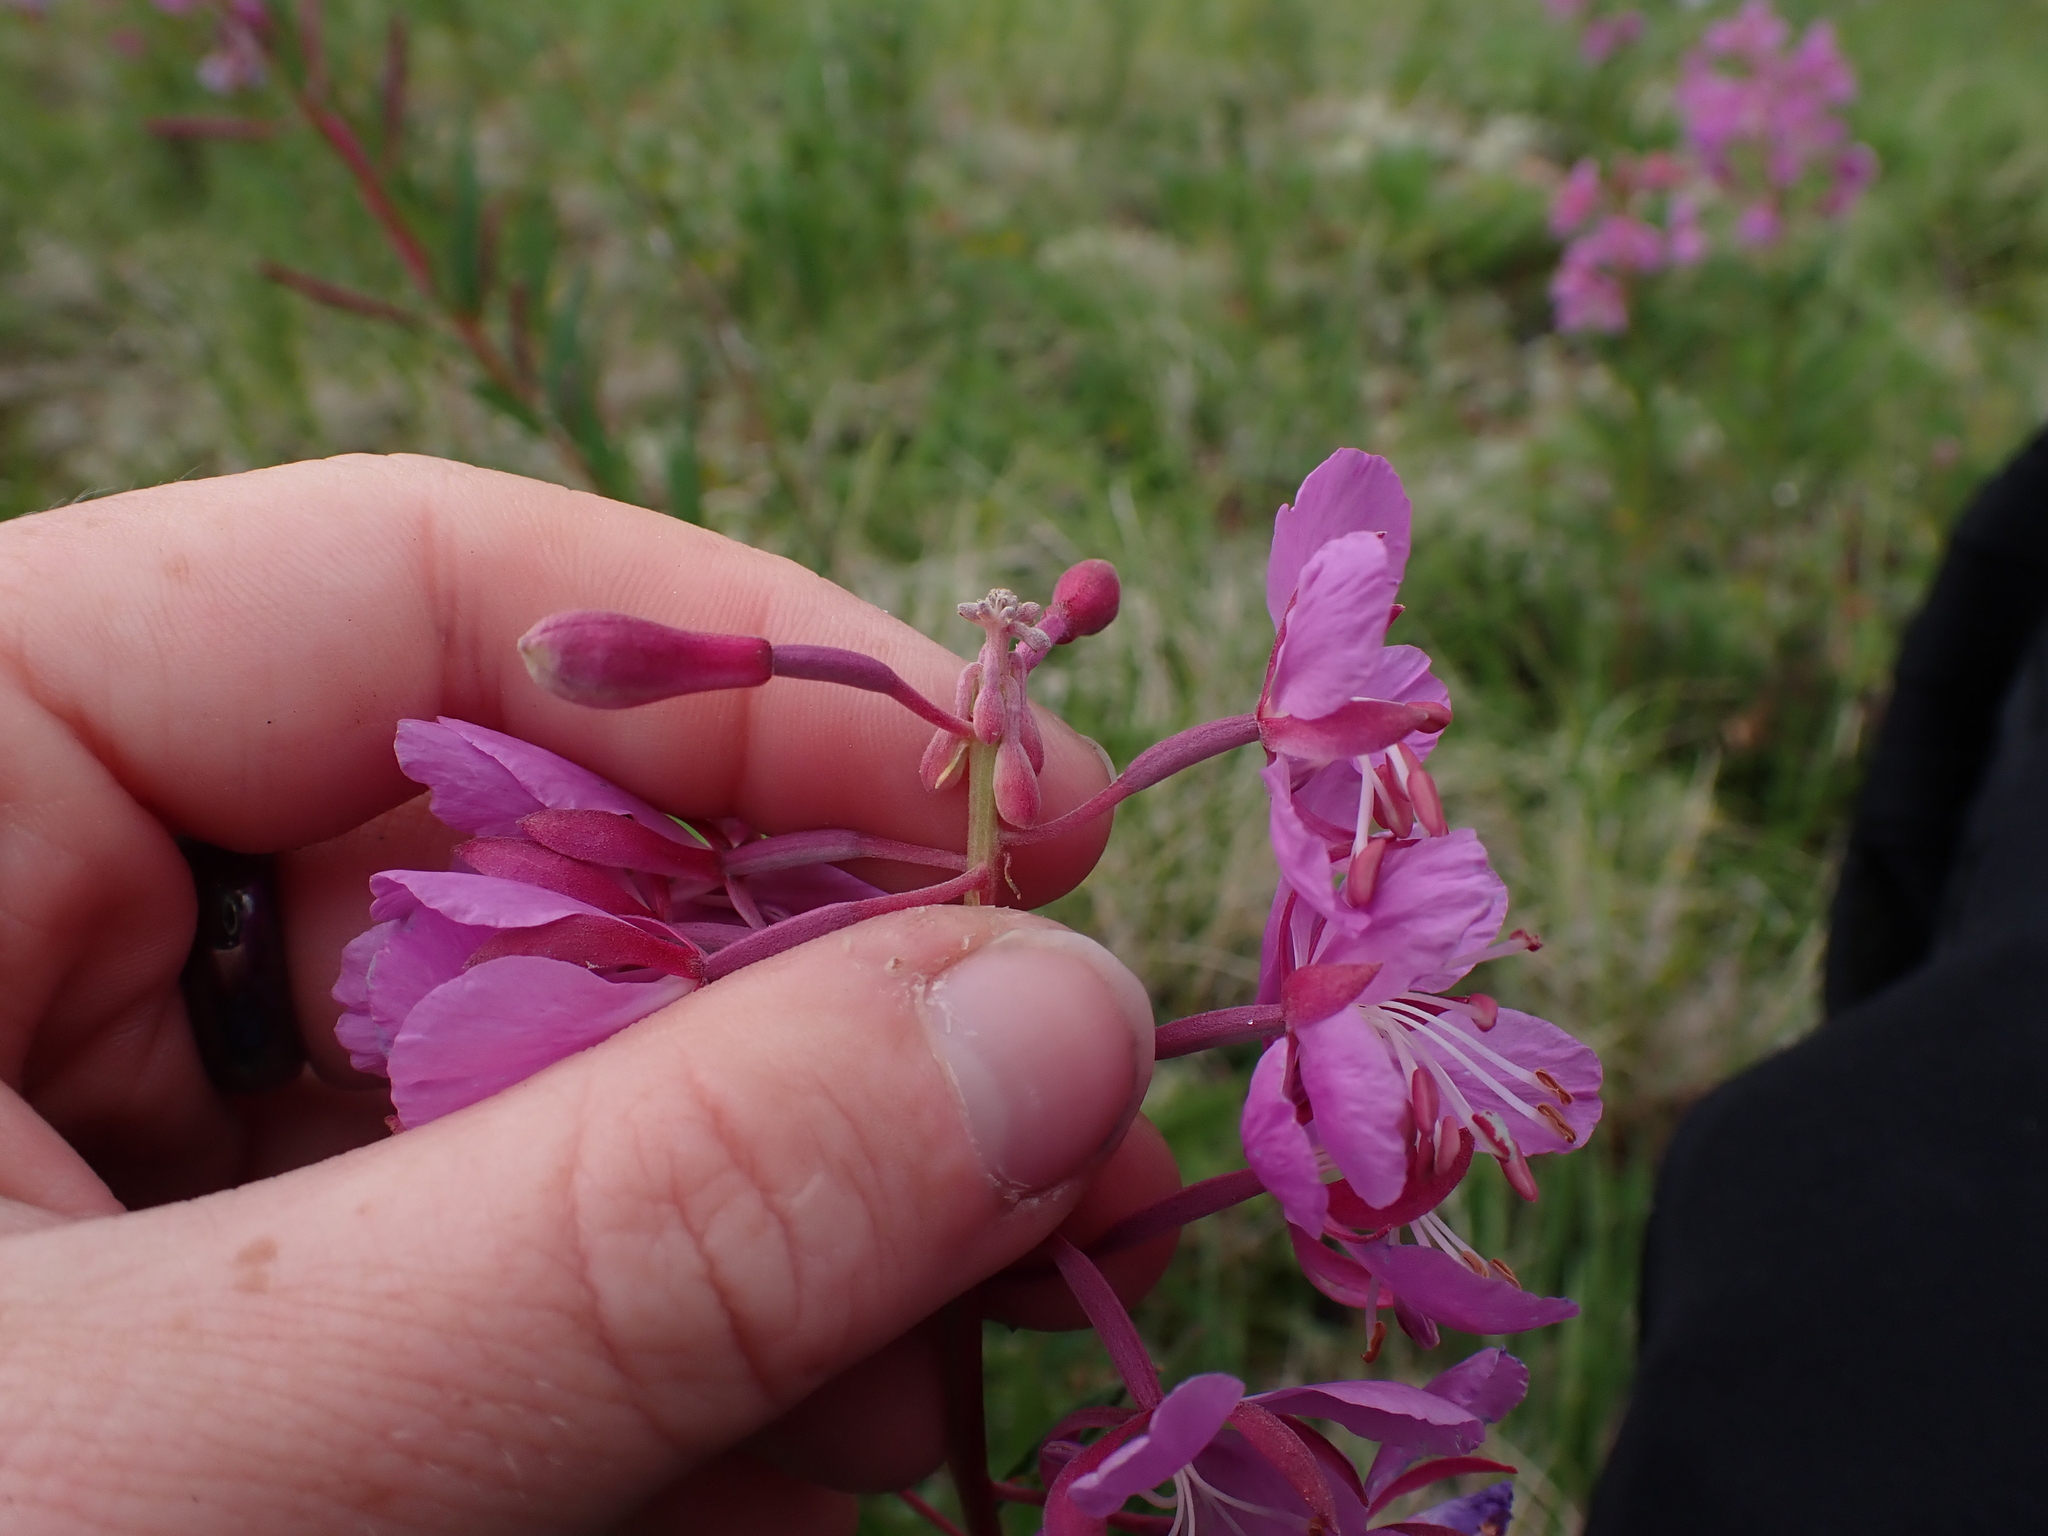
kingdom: Plantae
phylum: Tracheophyta
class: Magnoliopsida
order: Myrtales
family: Onagraceae
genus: Chamaenerion
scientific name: Chamaenerion angustifolium
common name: Fireweed
